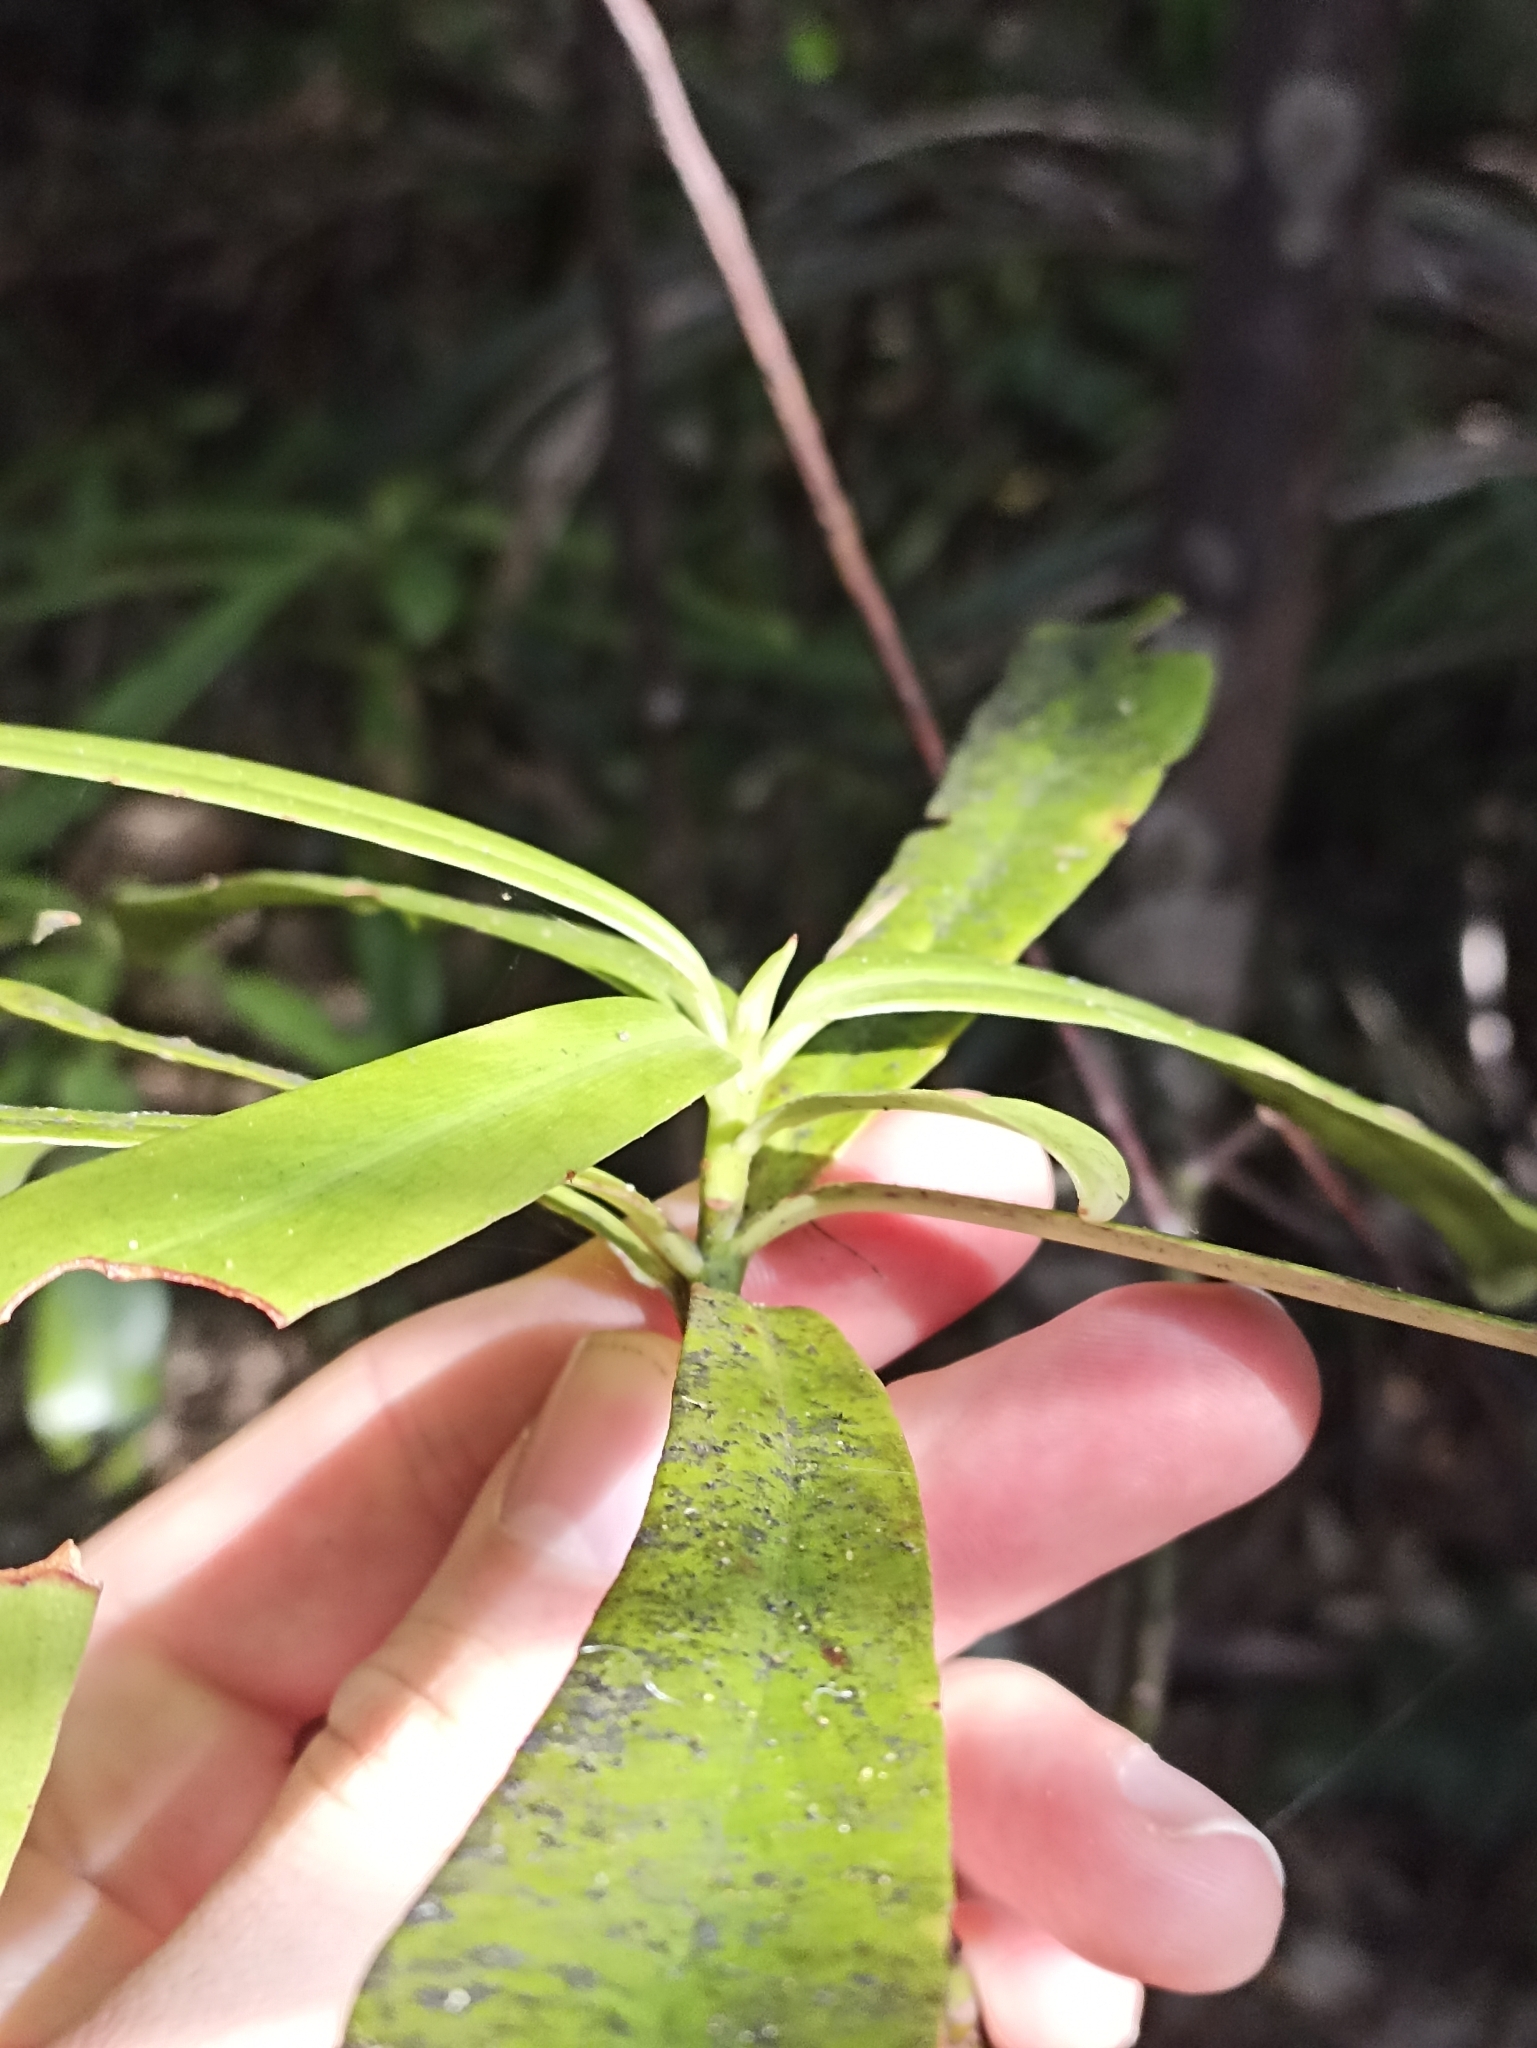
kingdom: Plantae
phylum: Tracheophyta
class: Magnoliopsida
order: Ericales
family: Primulaceae
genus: Myrsine
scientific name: Myrsine salicina
